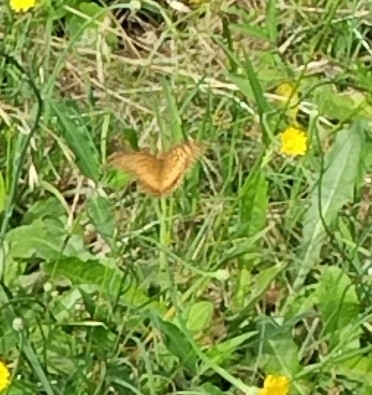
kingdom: Animalia
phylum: Arthropoda
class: Insecta
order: Lepidoptera
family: Nymphalidae
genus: Euptoieta
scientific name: Euptoieta hortensia
